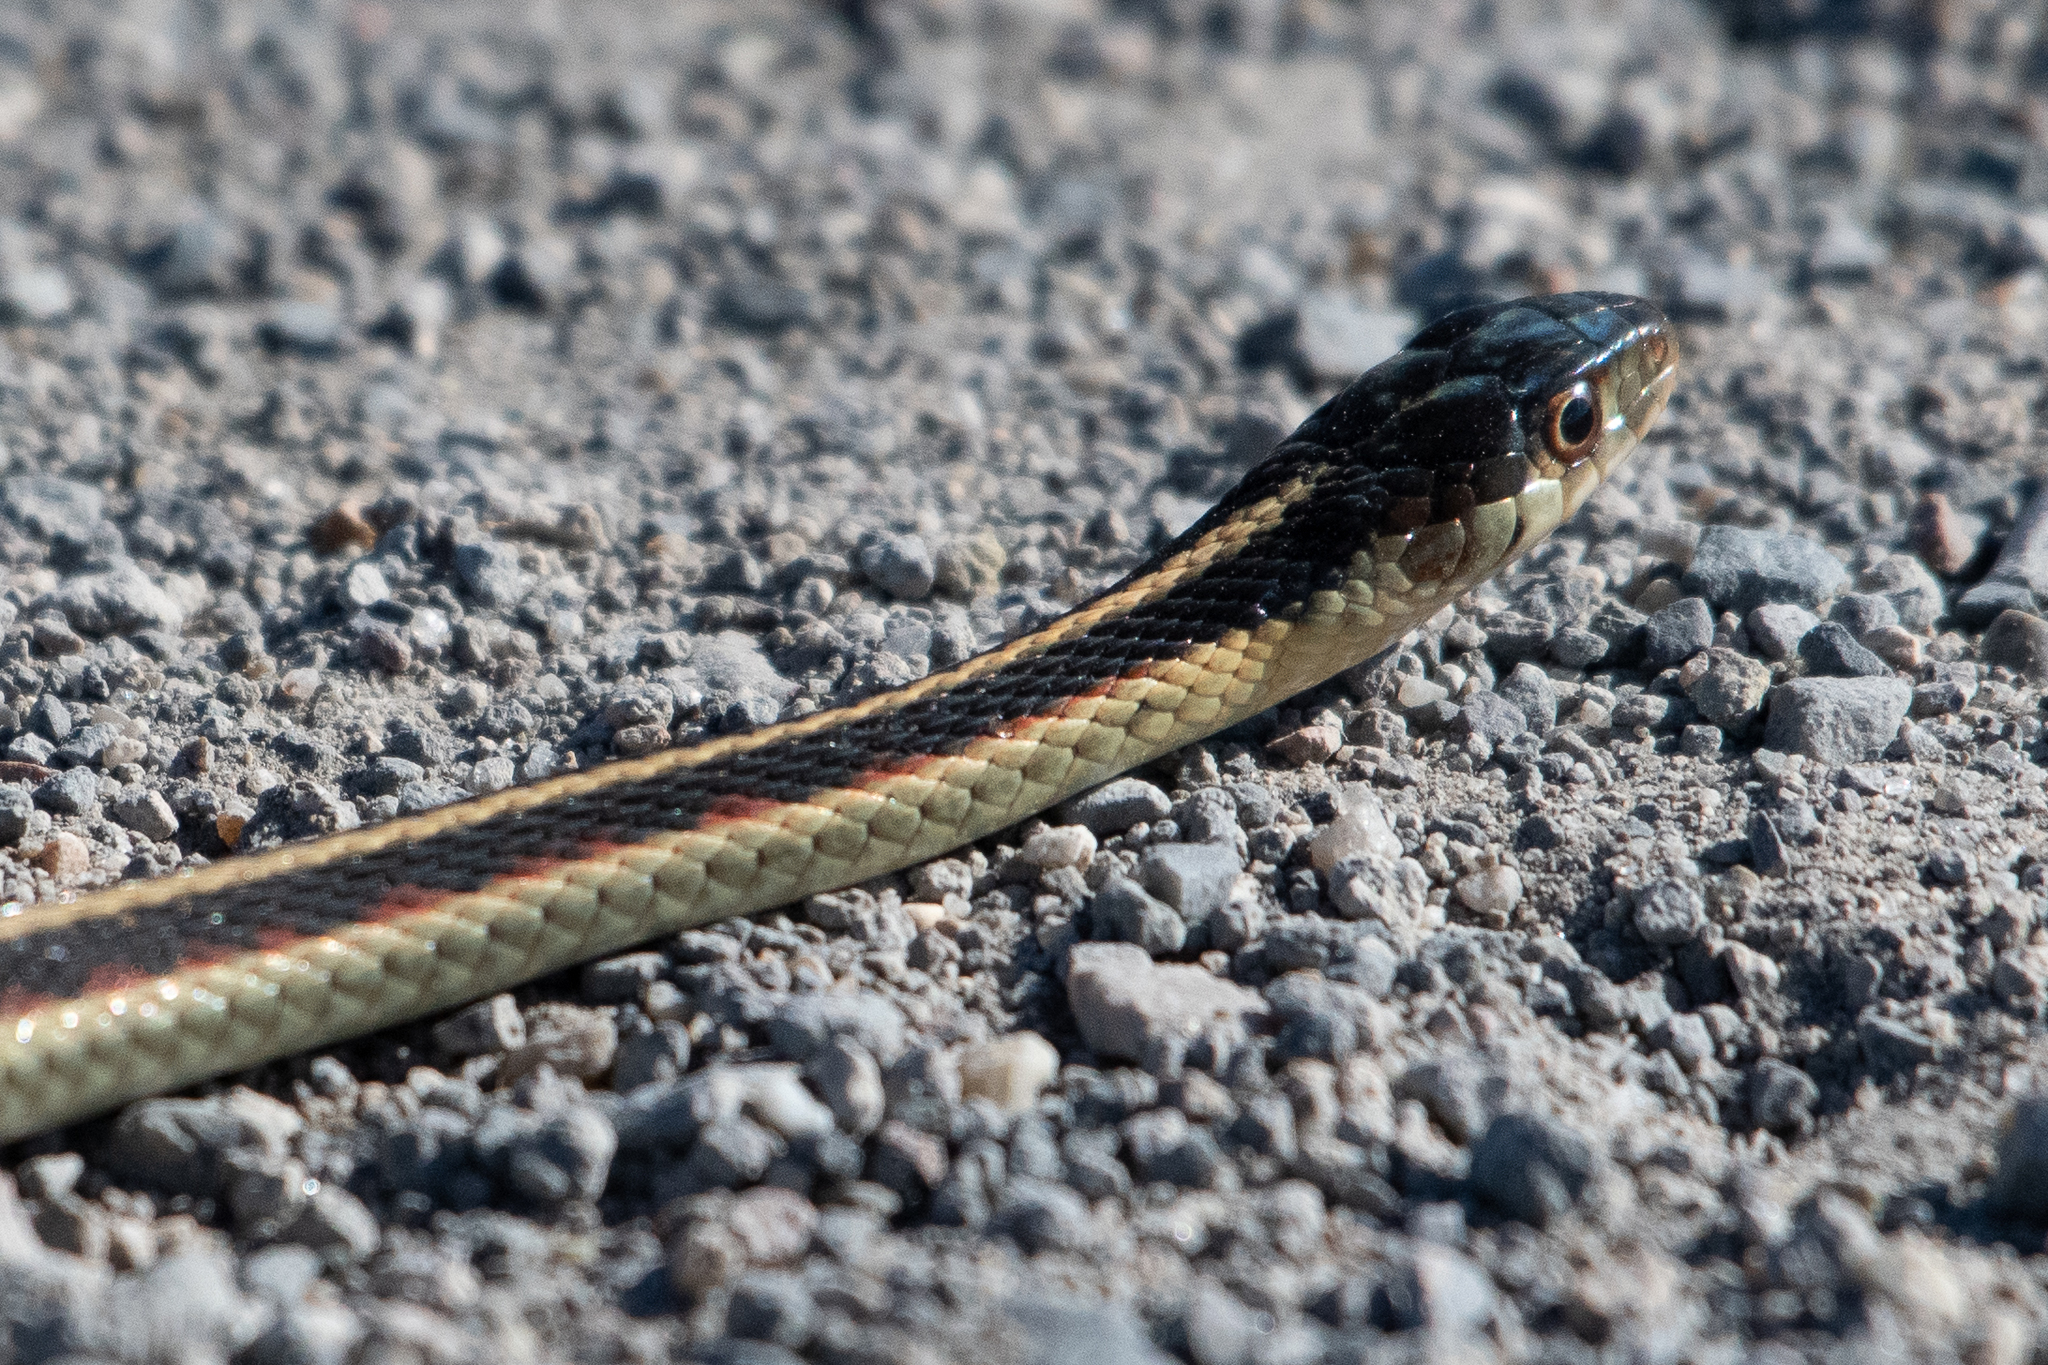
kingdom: Animalia
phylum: Chordata
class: Squamata
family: Colubridae
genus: Thamnophis
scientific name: Thamnophis sirtalis
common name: Common garter snake
